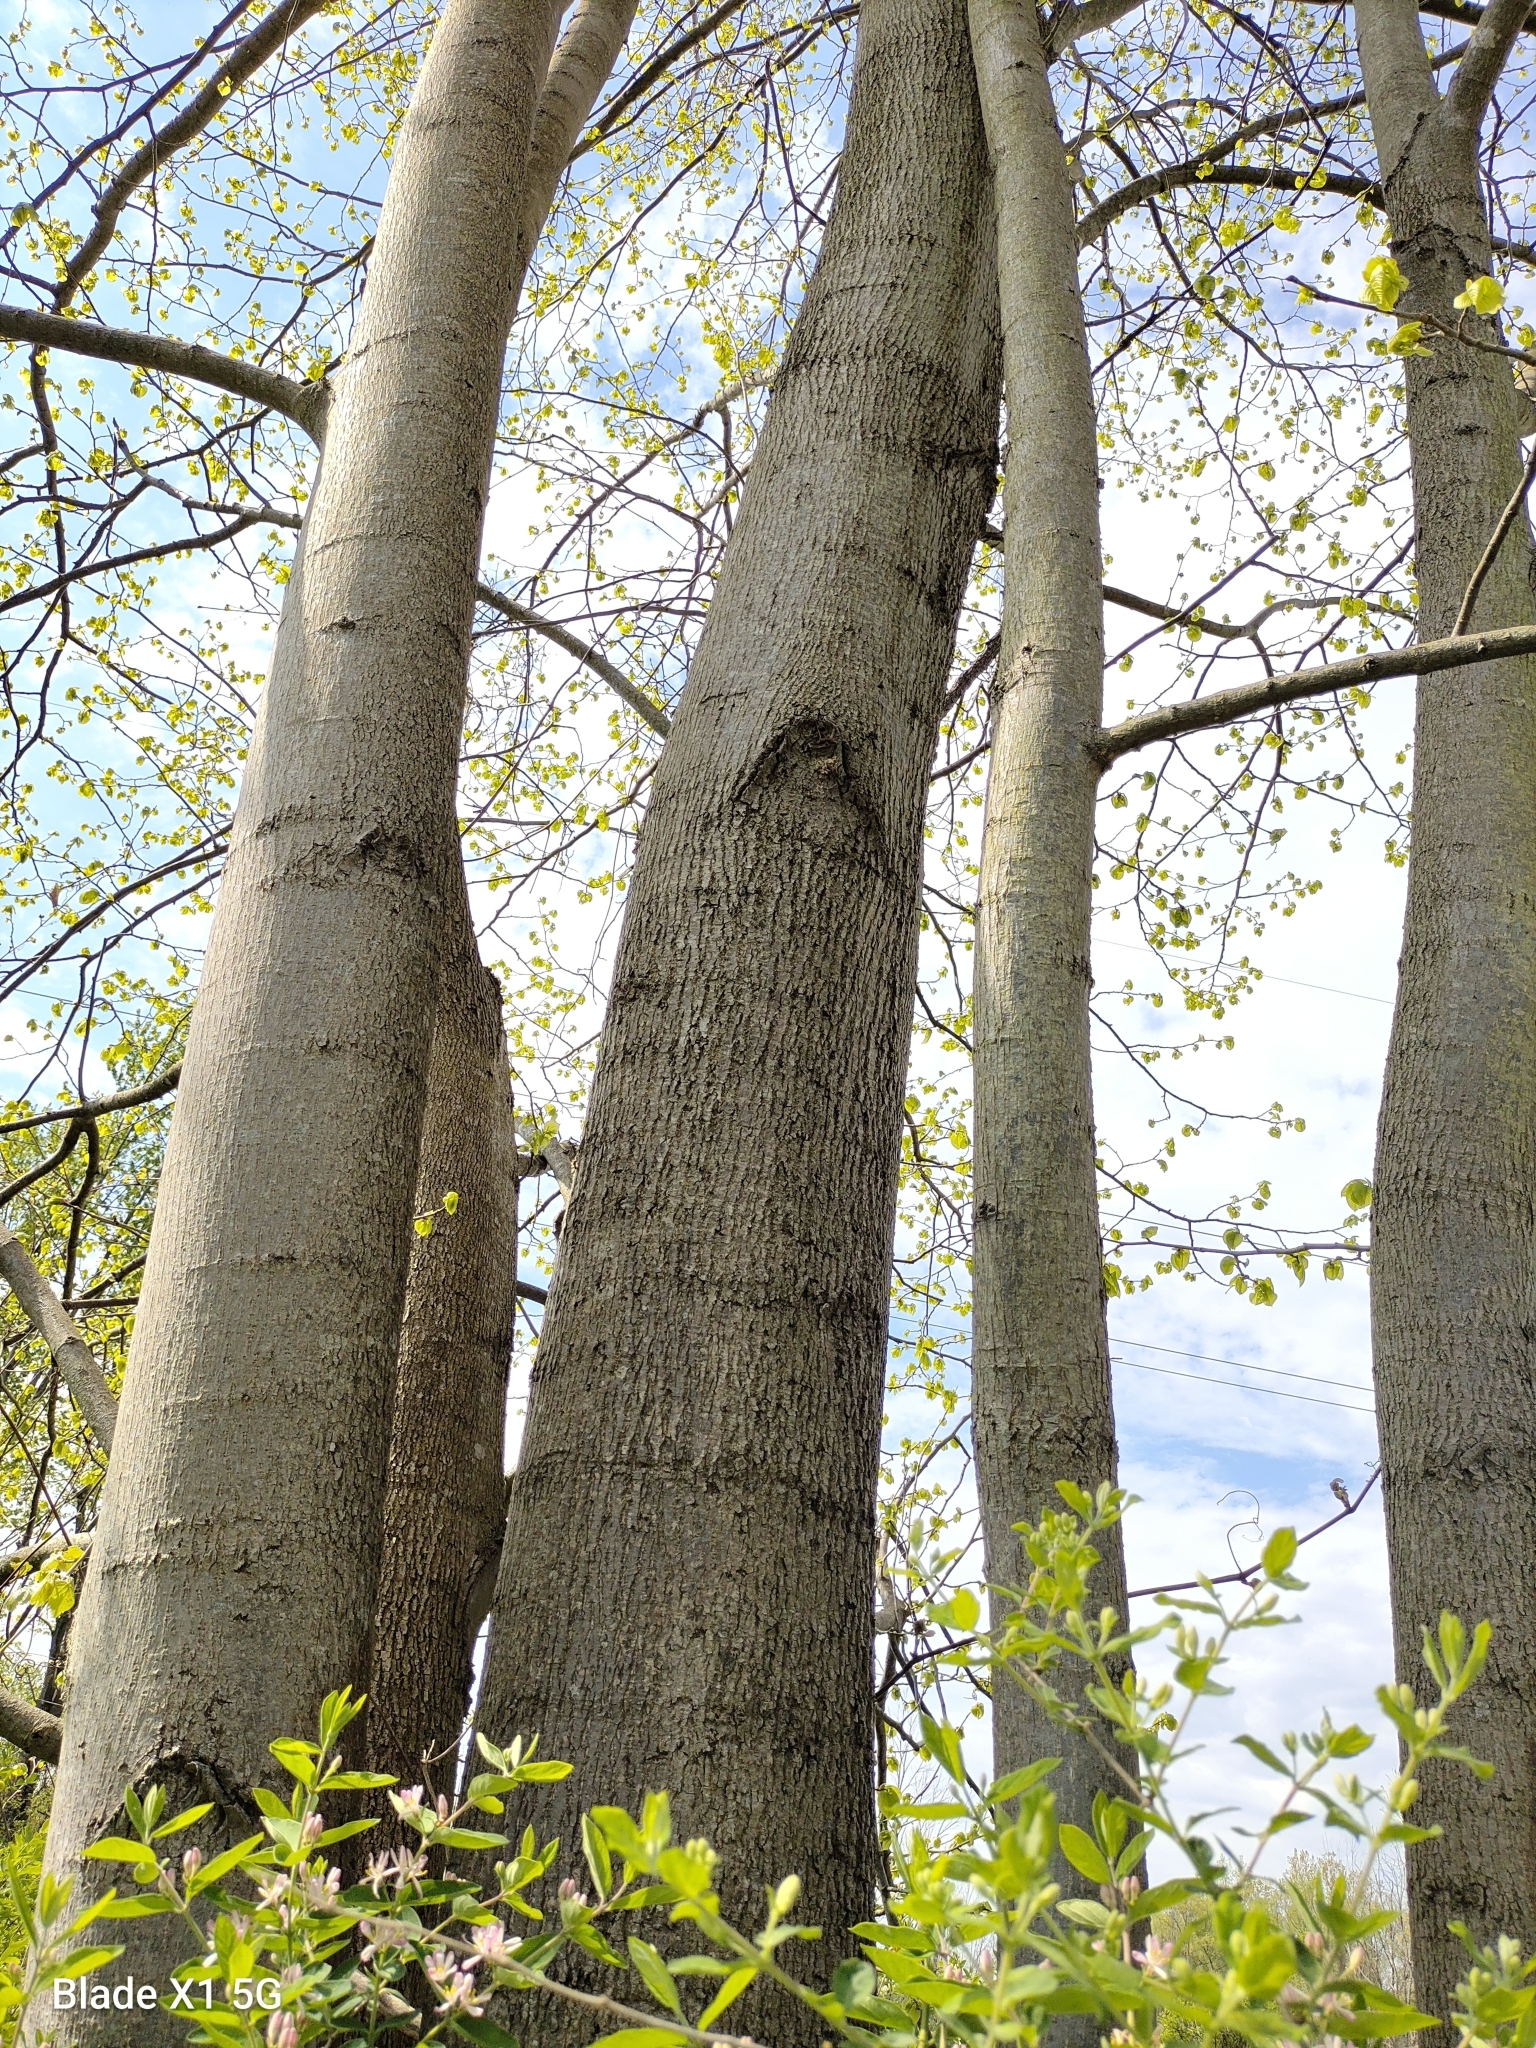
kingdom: Plantae
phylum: Tracheophyta
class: Magnoliopsida
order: Malvales
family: Malvaceae
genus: Tilia
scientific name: Tilia americana
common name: Basswood
